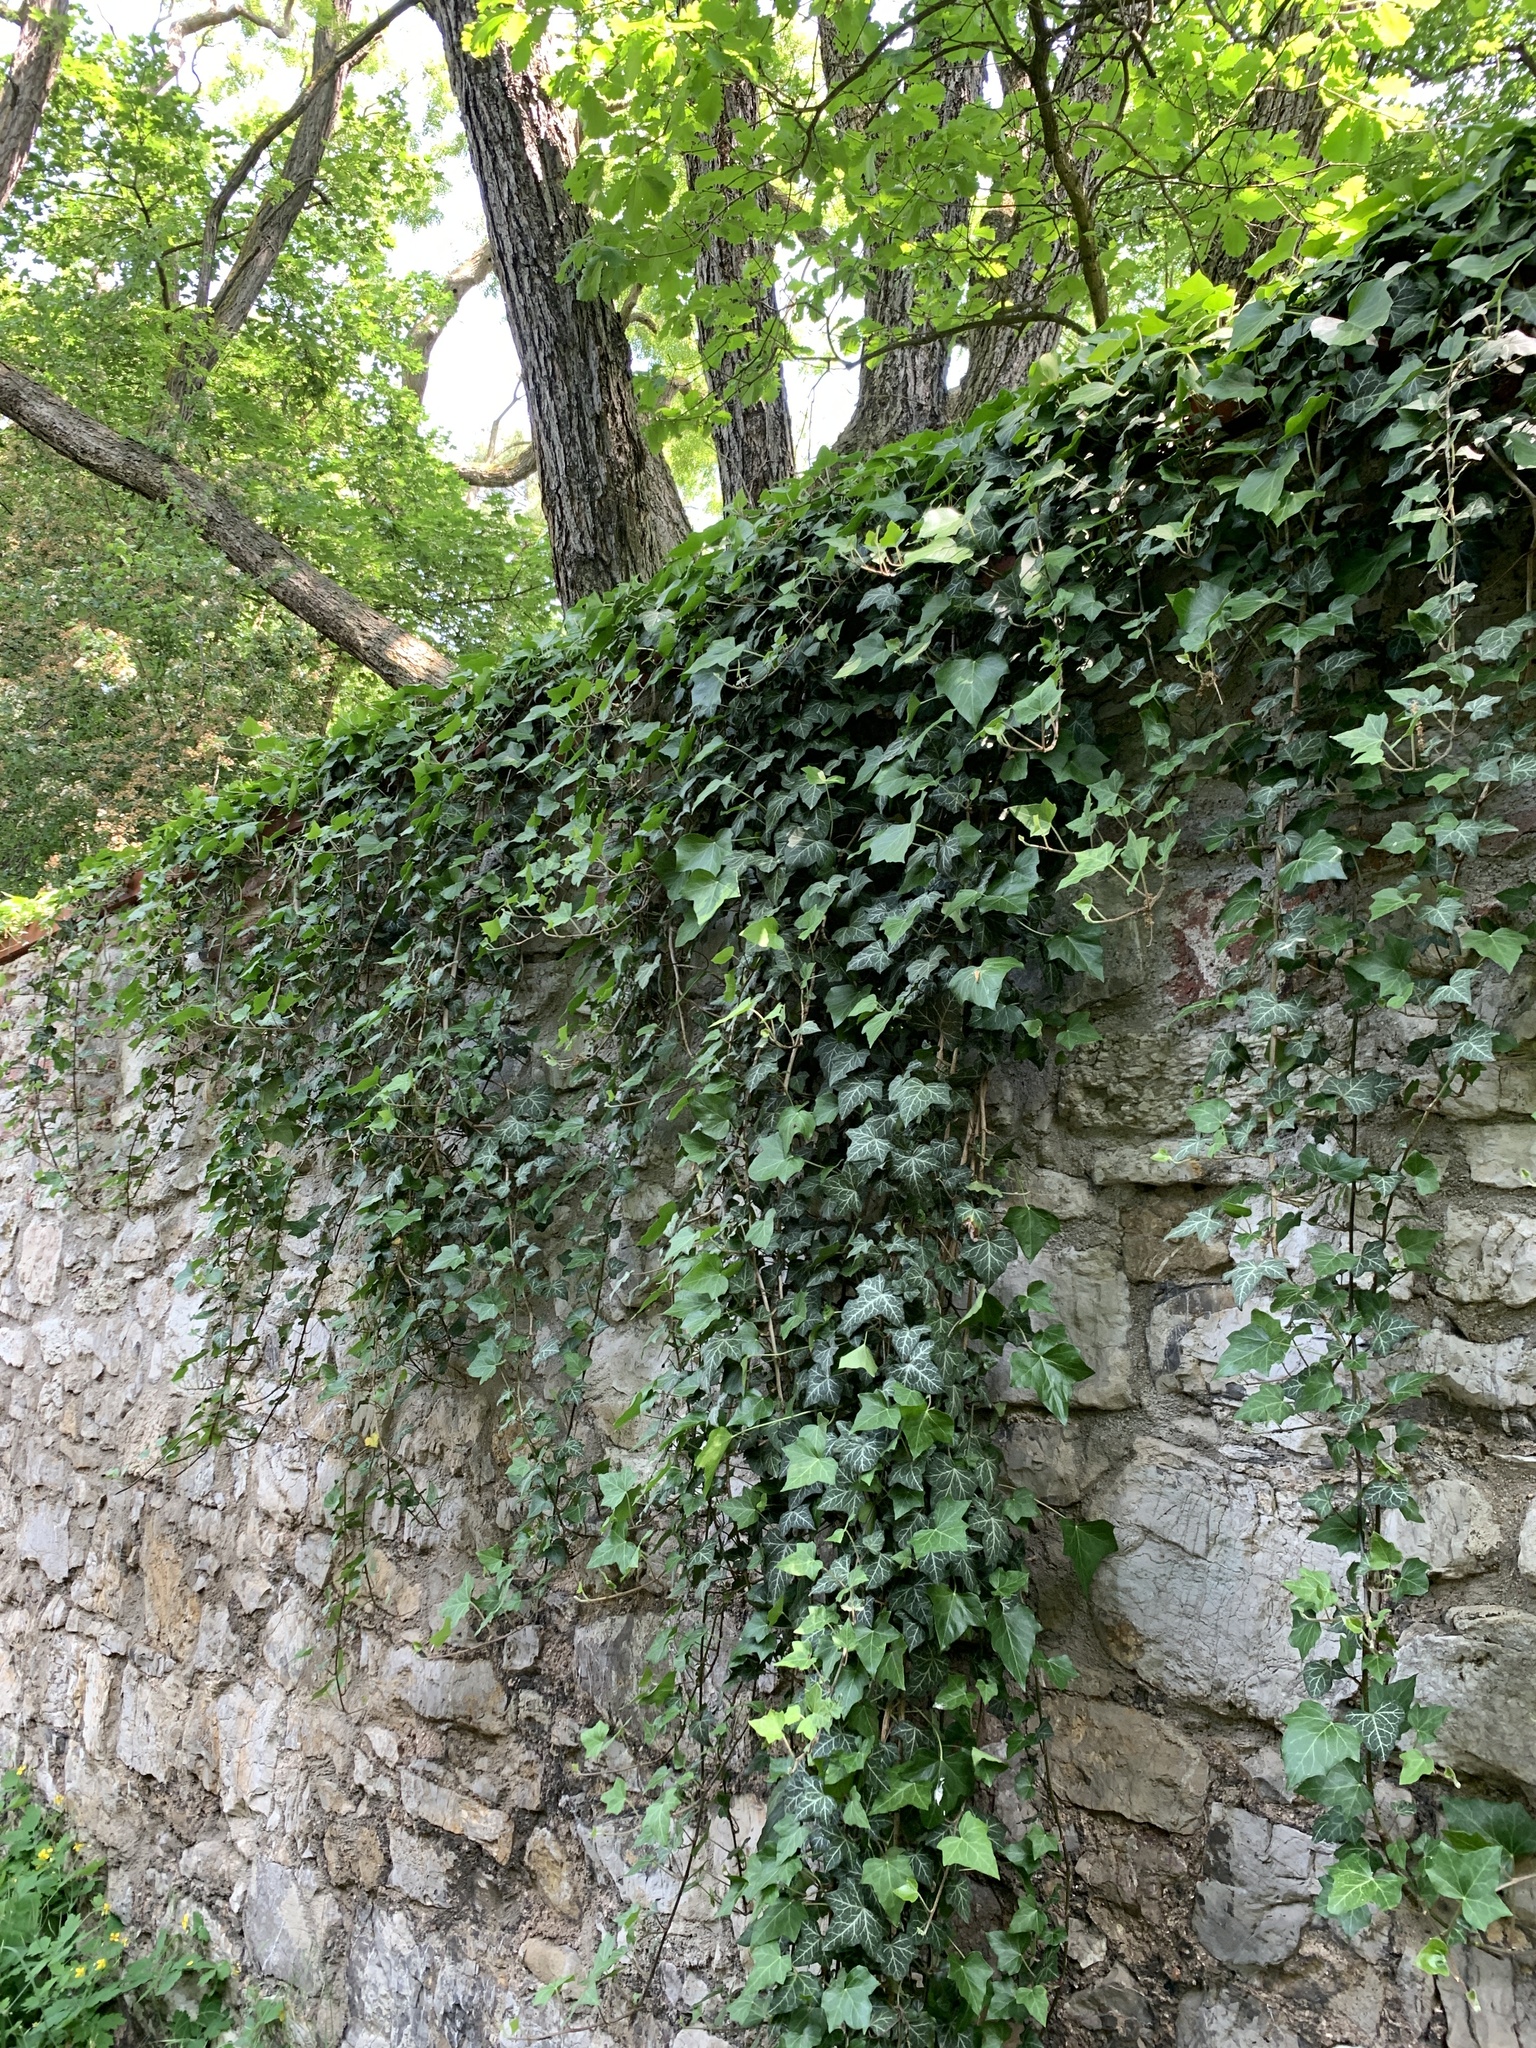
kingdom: Plantae
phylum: Tracheophyta
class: Magnoliopsida
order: Apiales
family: Araliaceae
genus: Hedera
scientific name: Hedera helix
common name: Ivy
